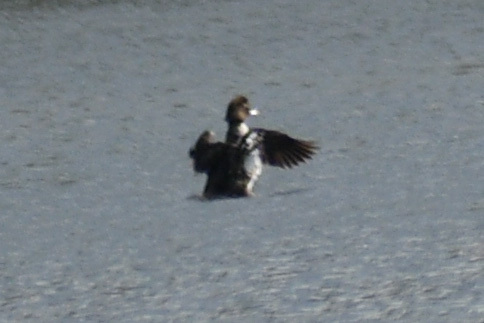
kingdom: Animalia
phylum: Chordata
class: Aves
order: Anseriformes
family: Anatidae
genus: Bucephala
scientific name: Bucephala islandica
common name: Barrow's goldeneye
